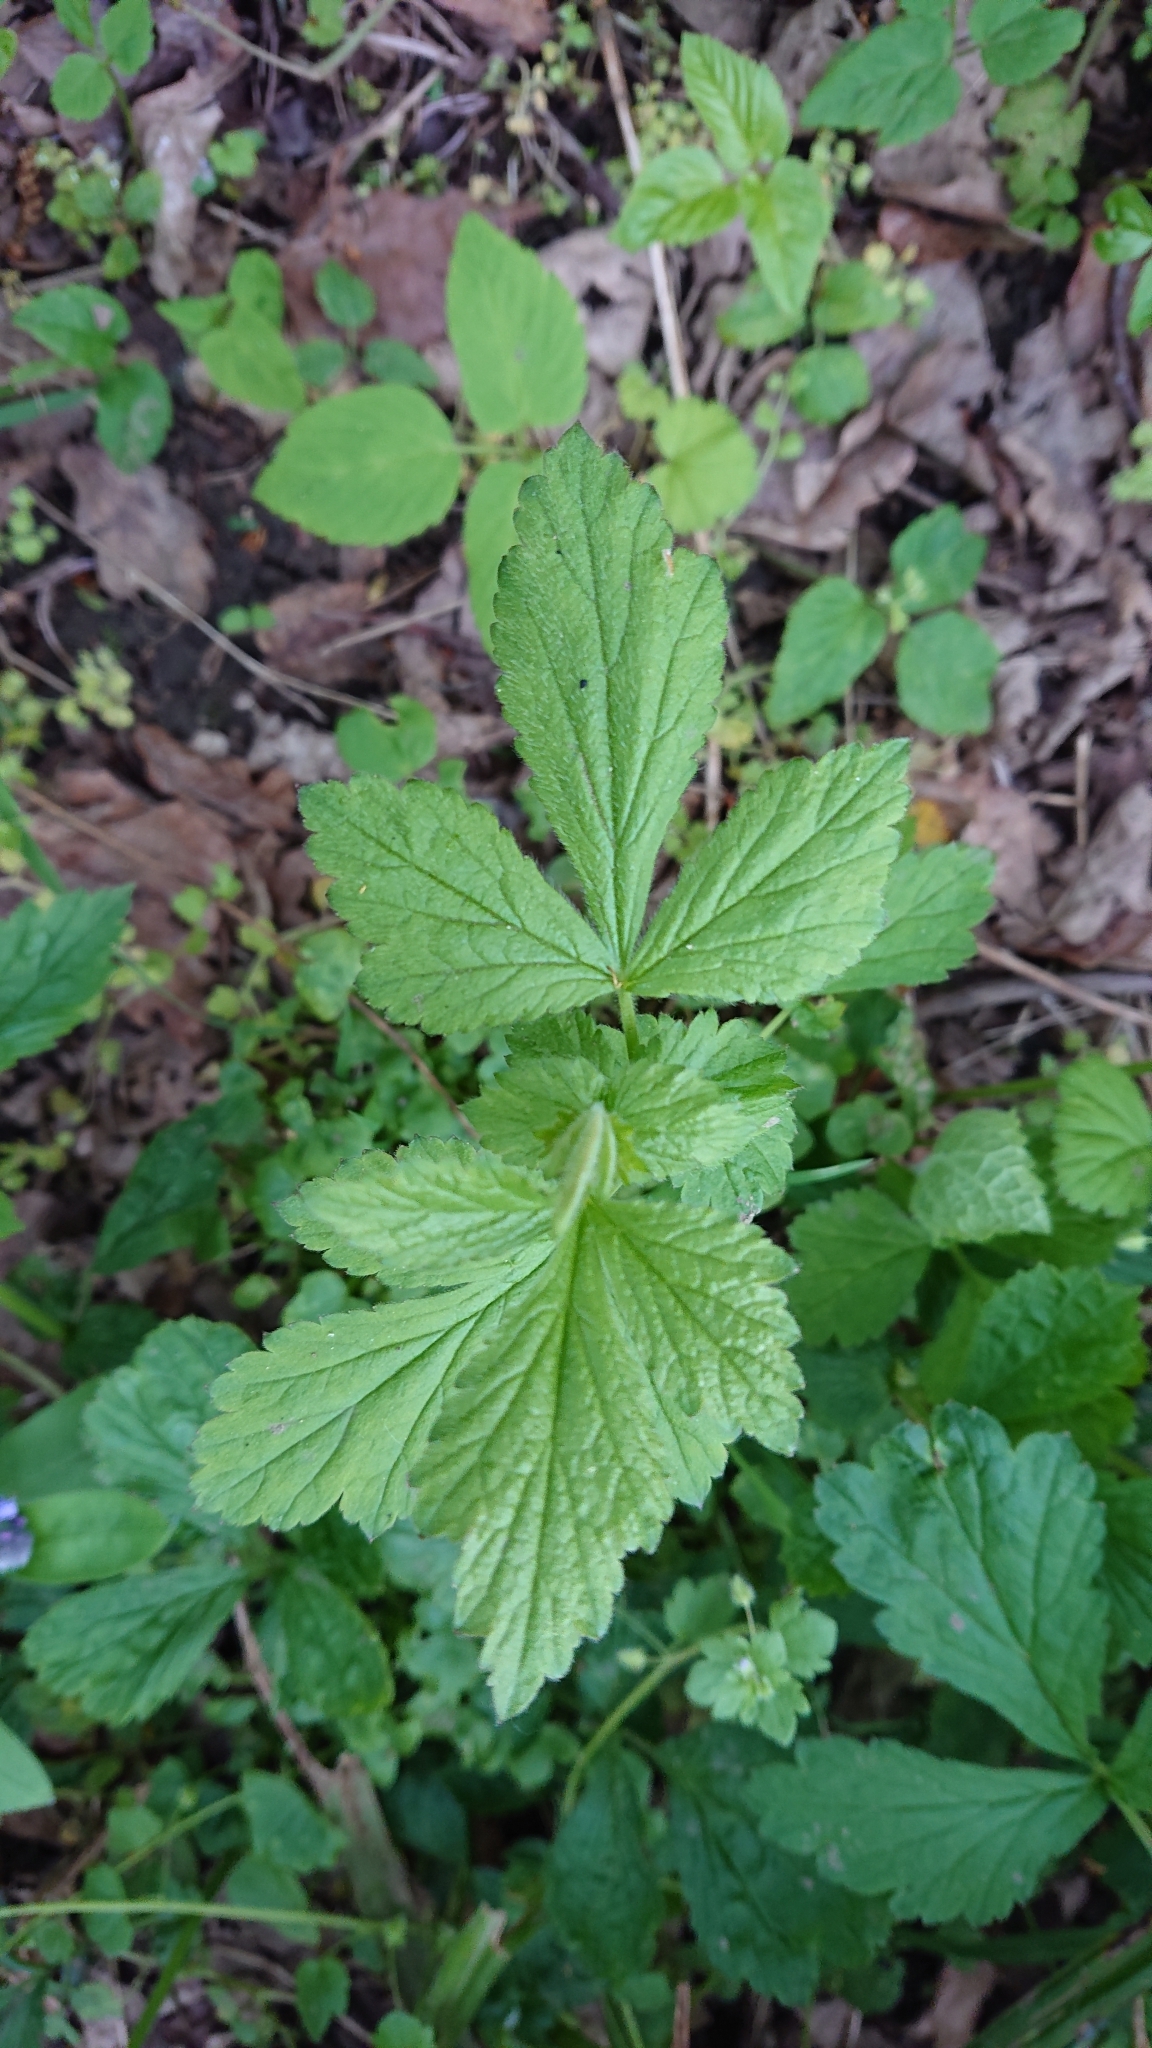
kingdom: Plantae
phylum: Tracheophyta
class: Magnoliopsida
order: Rosales
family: Rosaceae
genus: Geum
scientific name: Geum urbanum
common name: Wood avens
